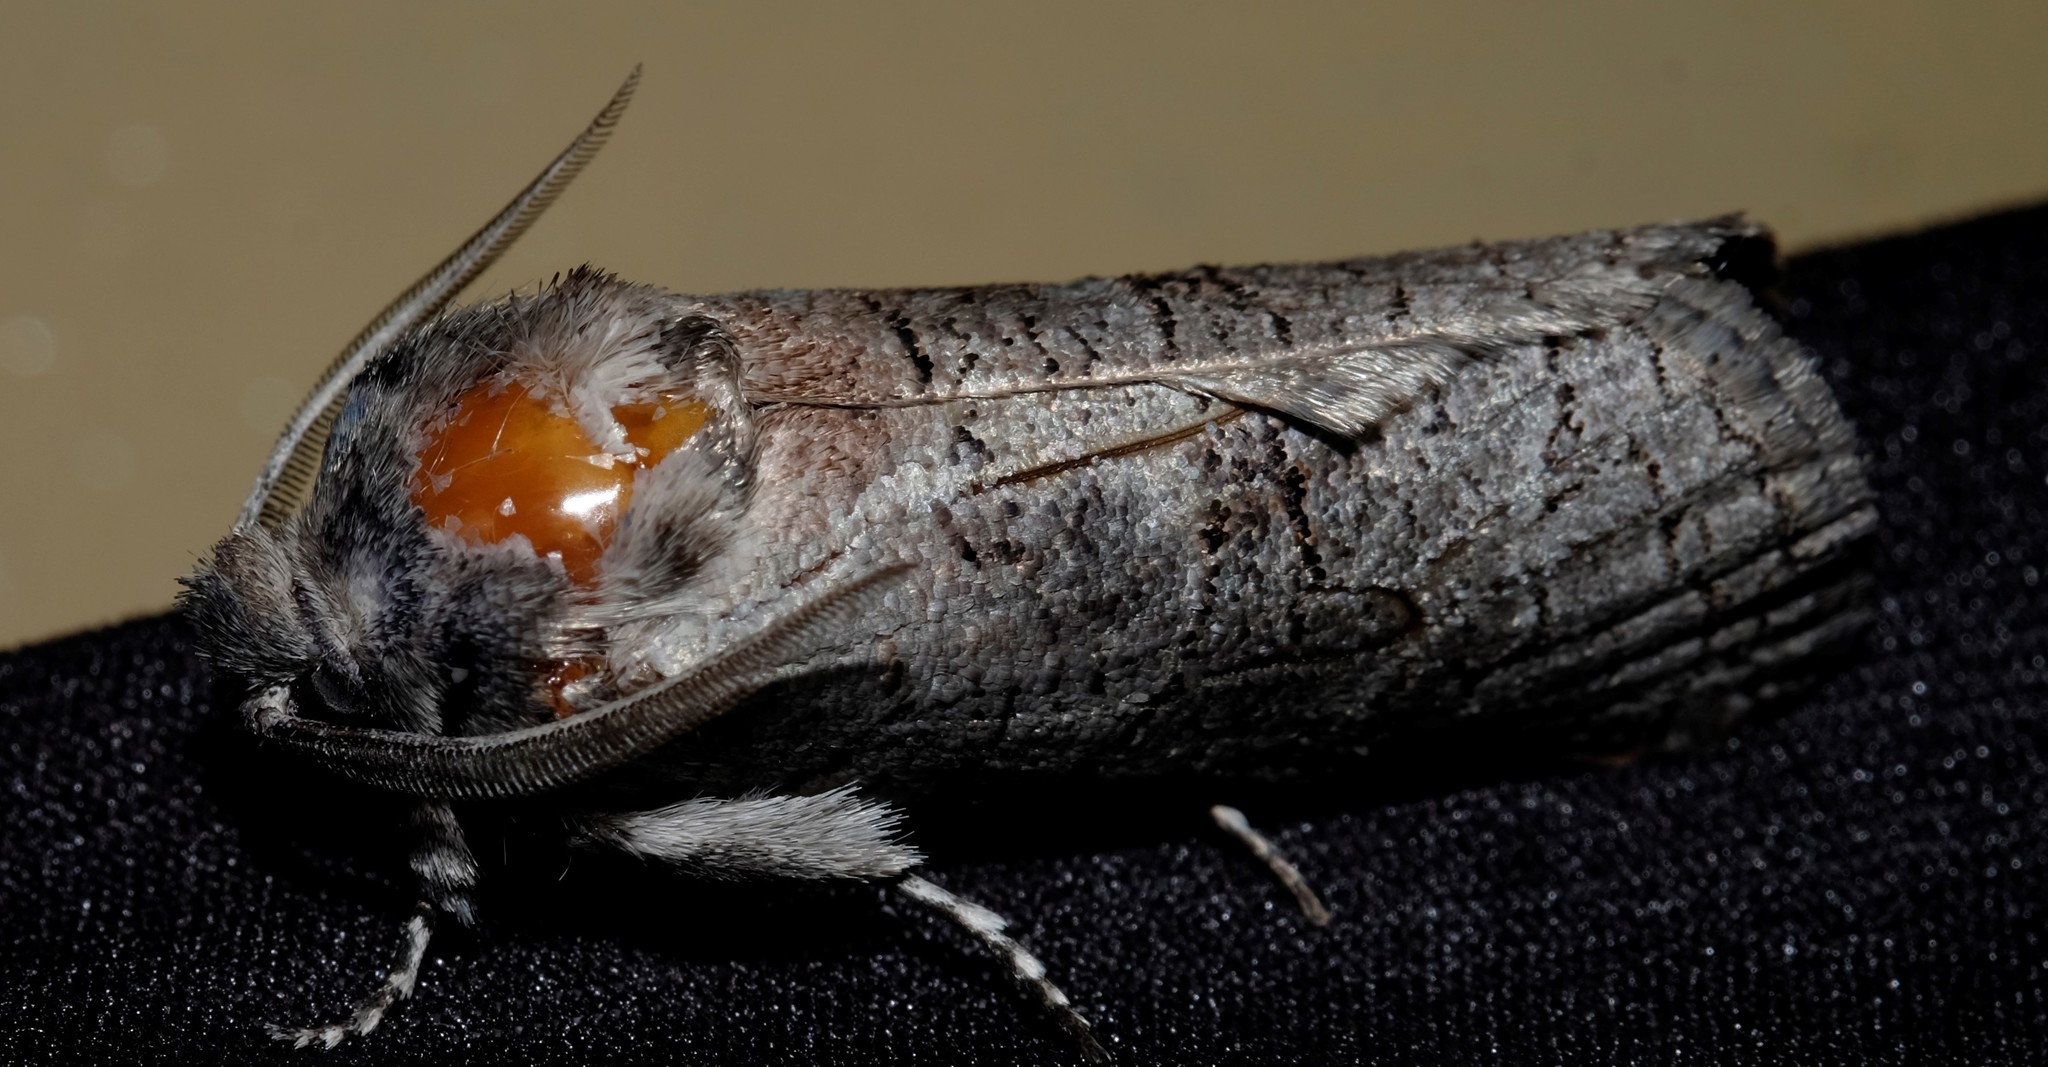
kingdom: Animalia
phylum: Arthropoda
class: Insecta
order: Lepidoptera
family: Cossidae
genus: Culama
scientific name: Culama suffusca
